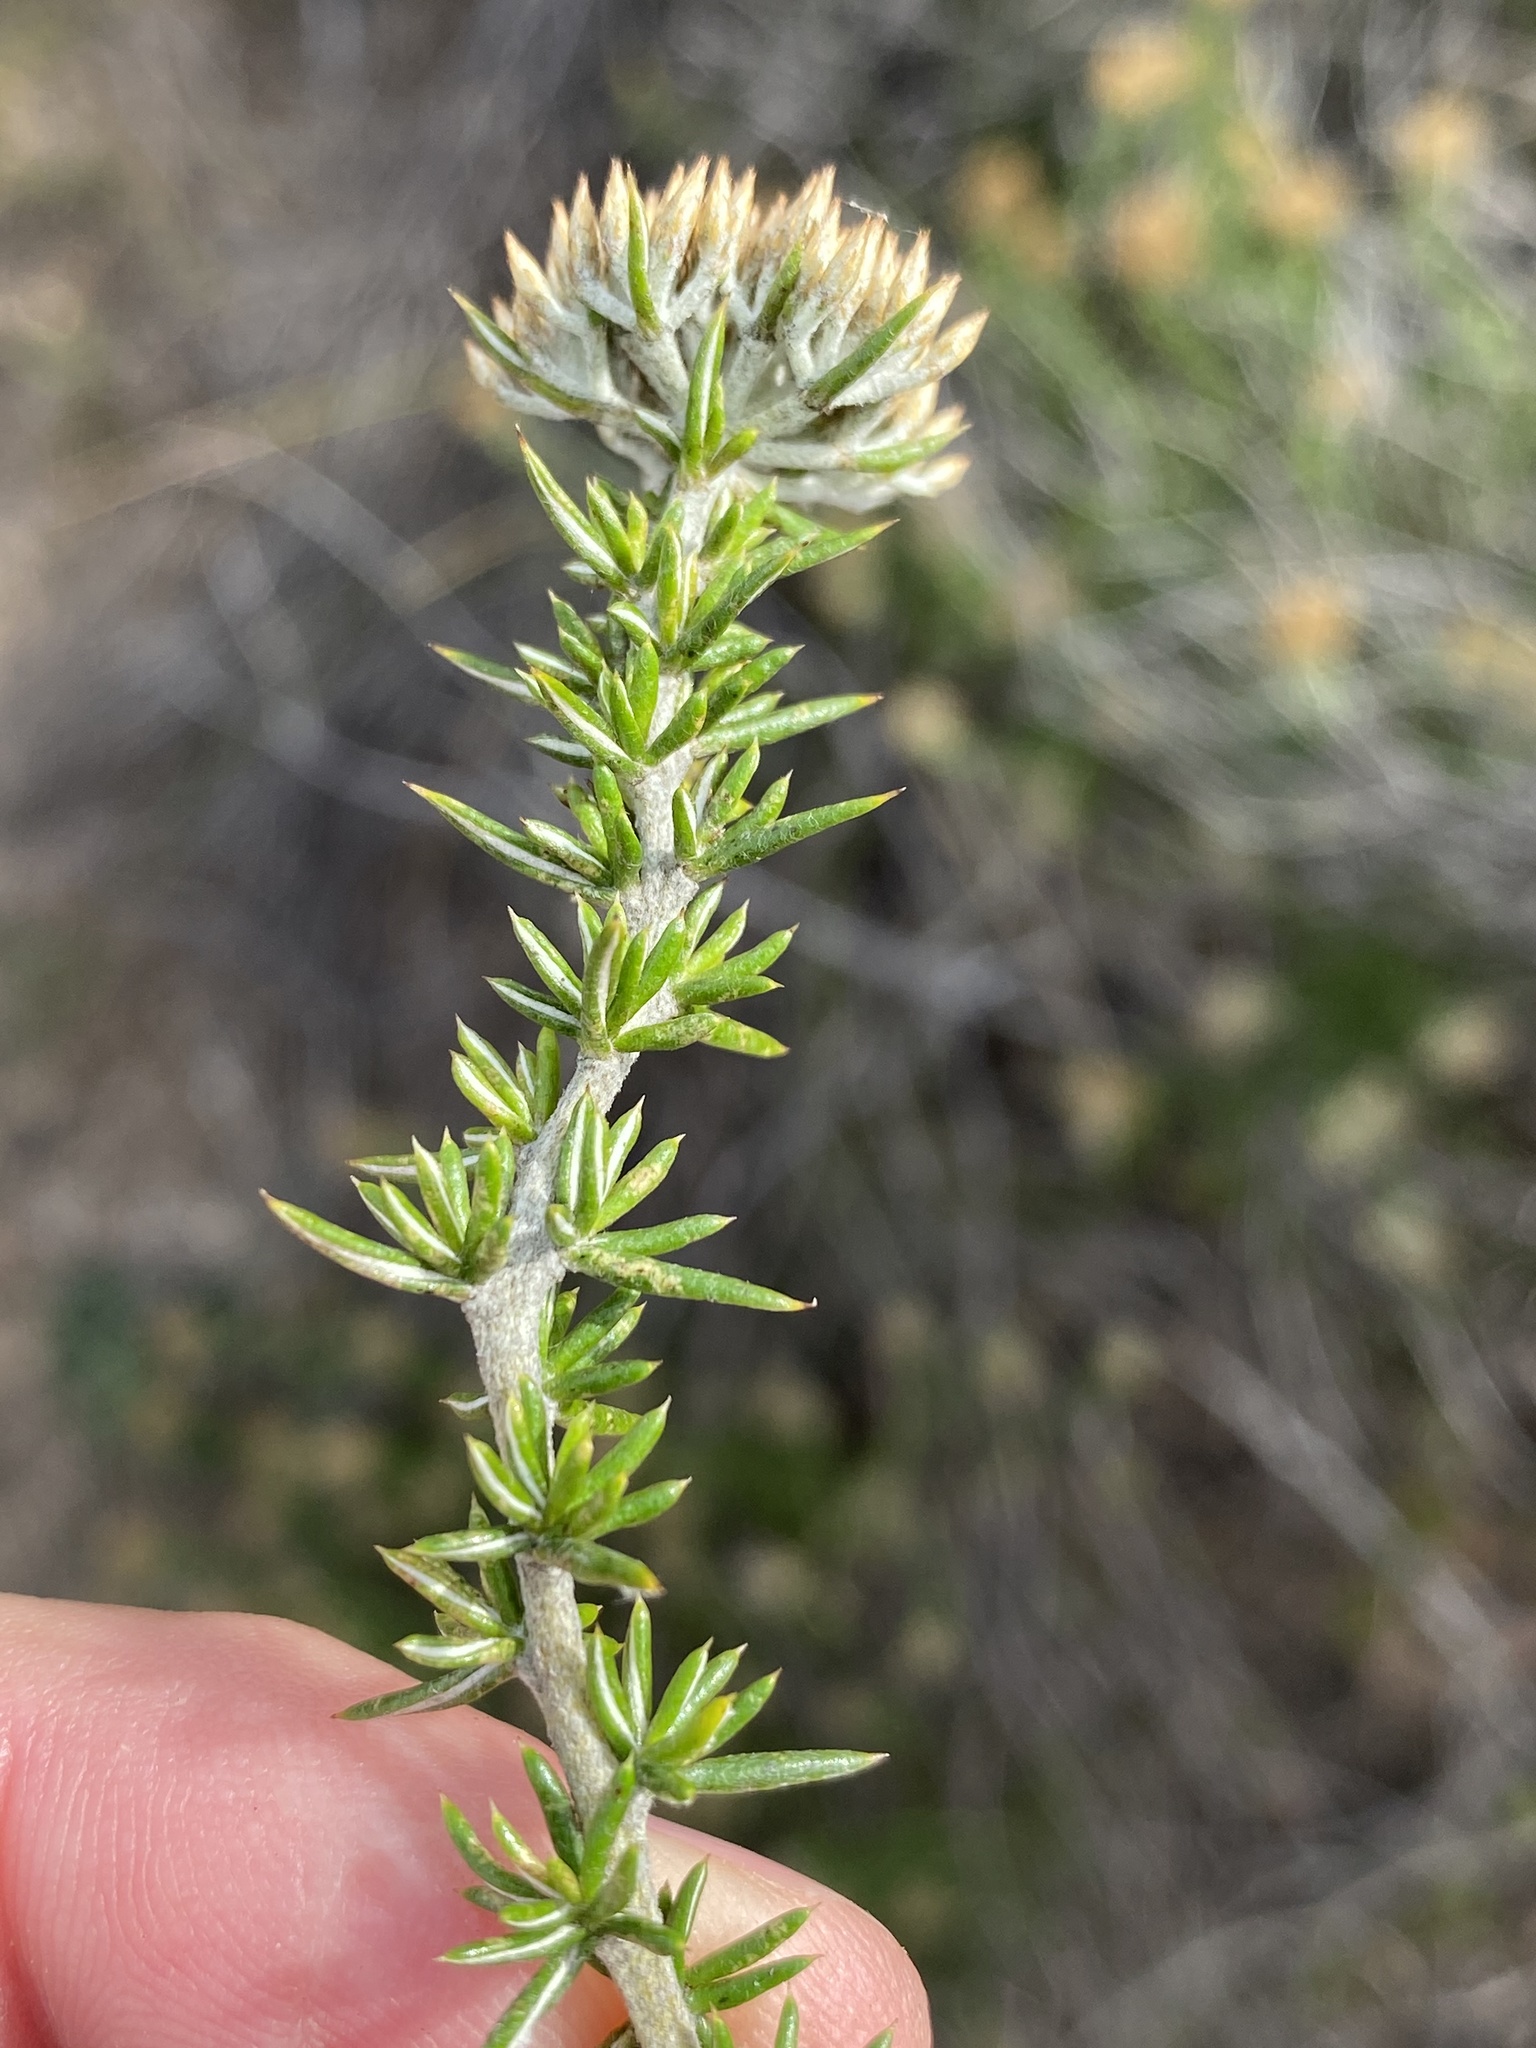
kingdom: Plantae
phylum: Tracheophyta
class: Magnoliopsida
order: Asterales
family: Asteraceae
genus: Metalasia
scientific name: Metalasia acuta
